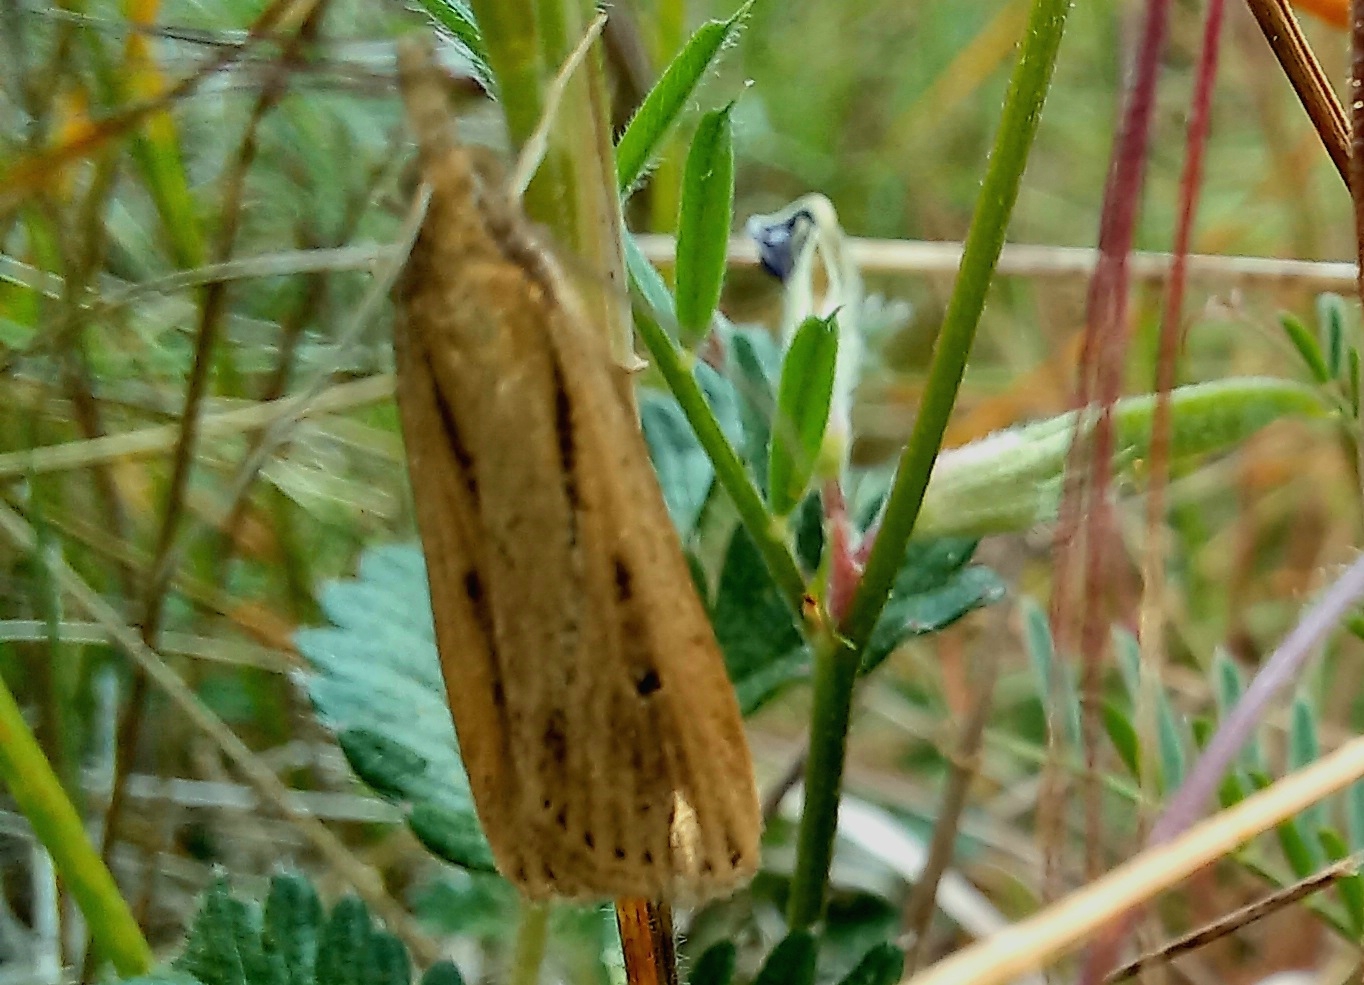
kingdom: Animalia
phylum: Arthropoda
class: Insecta
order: Lepidoptera
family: Crambidae
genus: Eudonia
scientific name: Eudonia sabulosella
